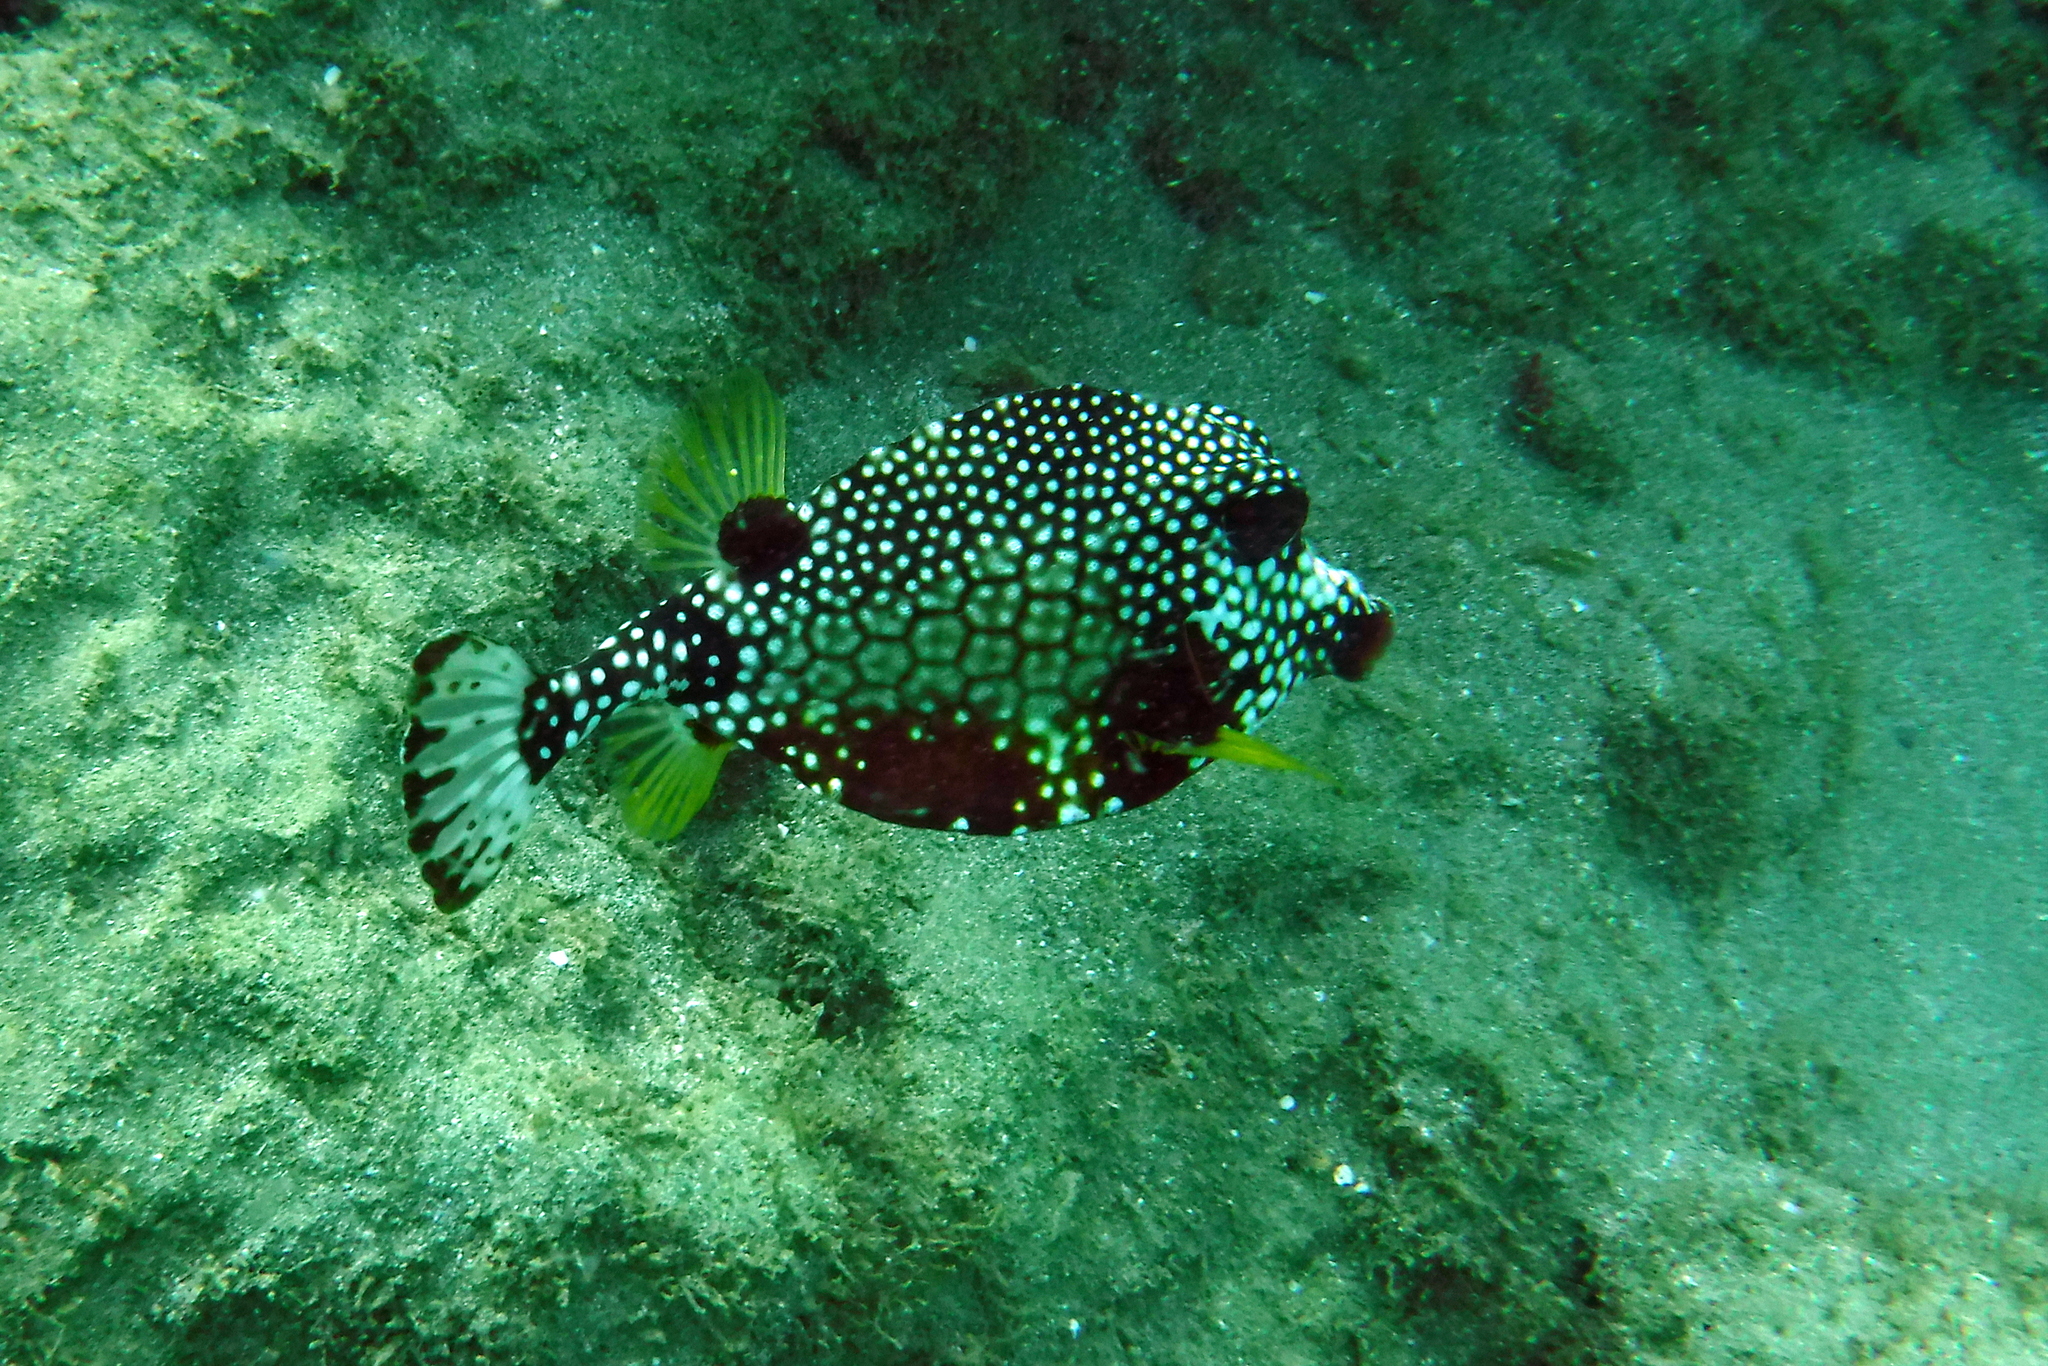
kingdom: Animalia
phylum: Chordata
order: Tetraodontiformes
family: Ostraciidae
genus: Lactophrys
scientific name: Lactophrys triqueter
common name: Smooth trunkfish
